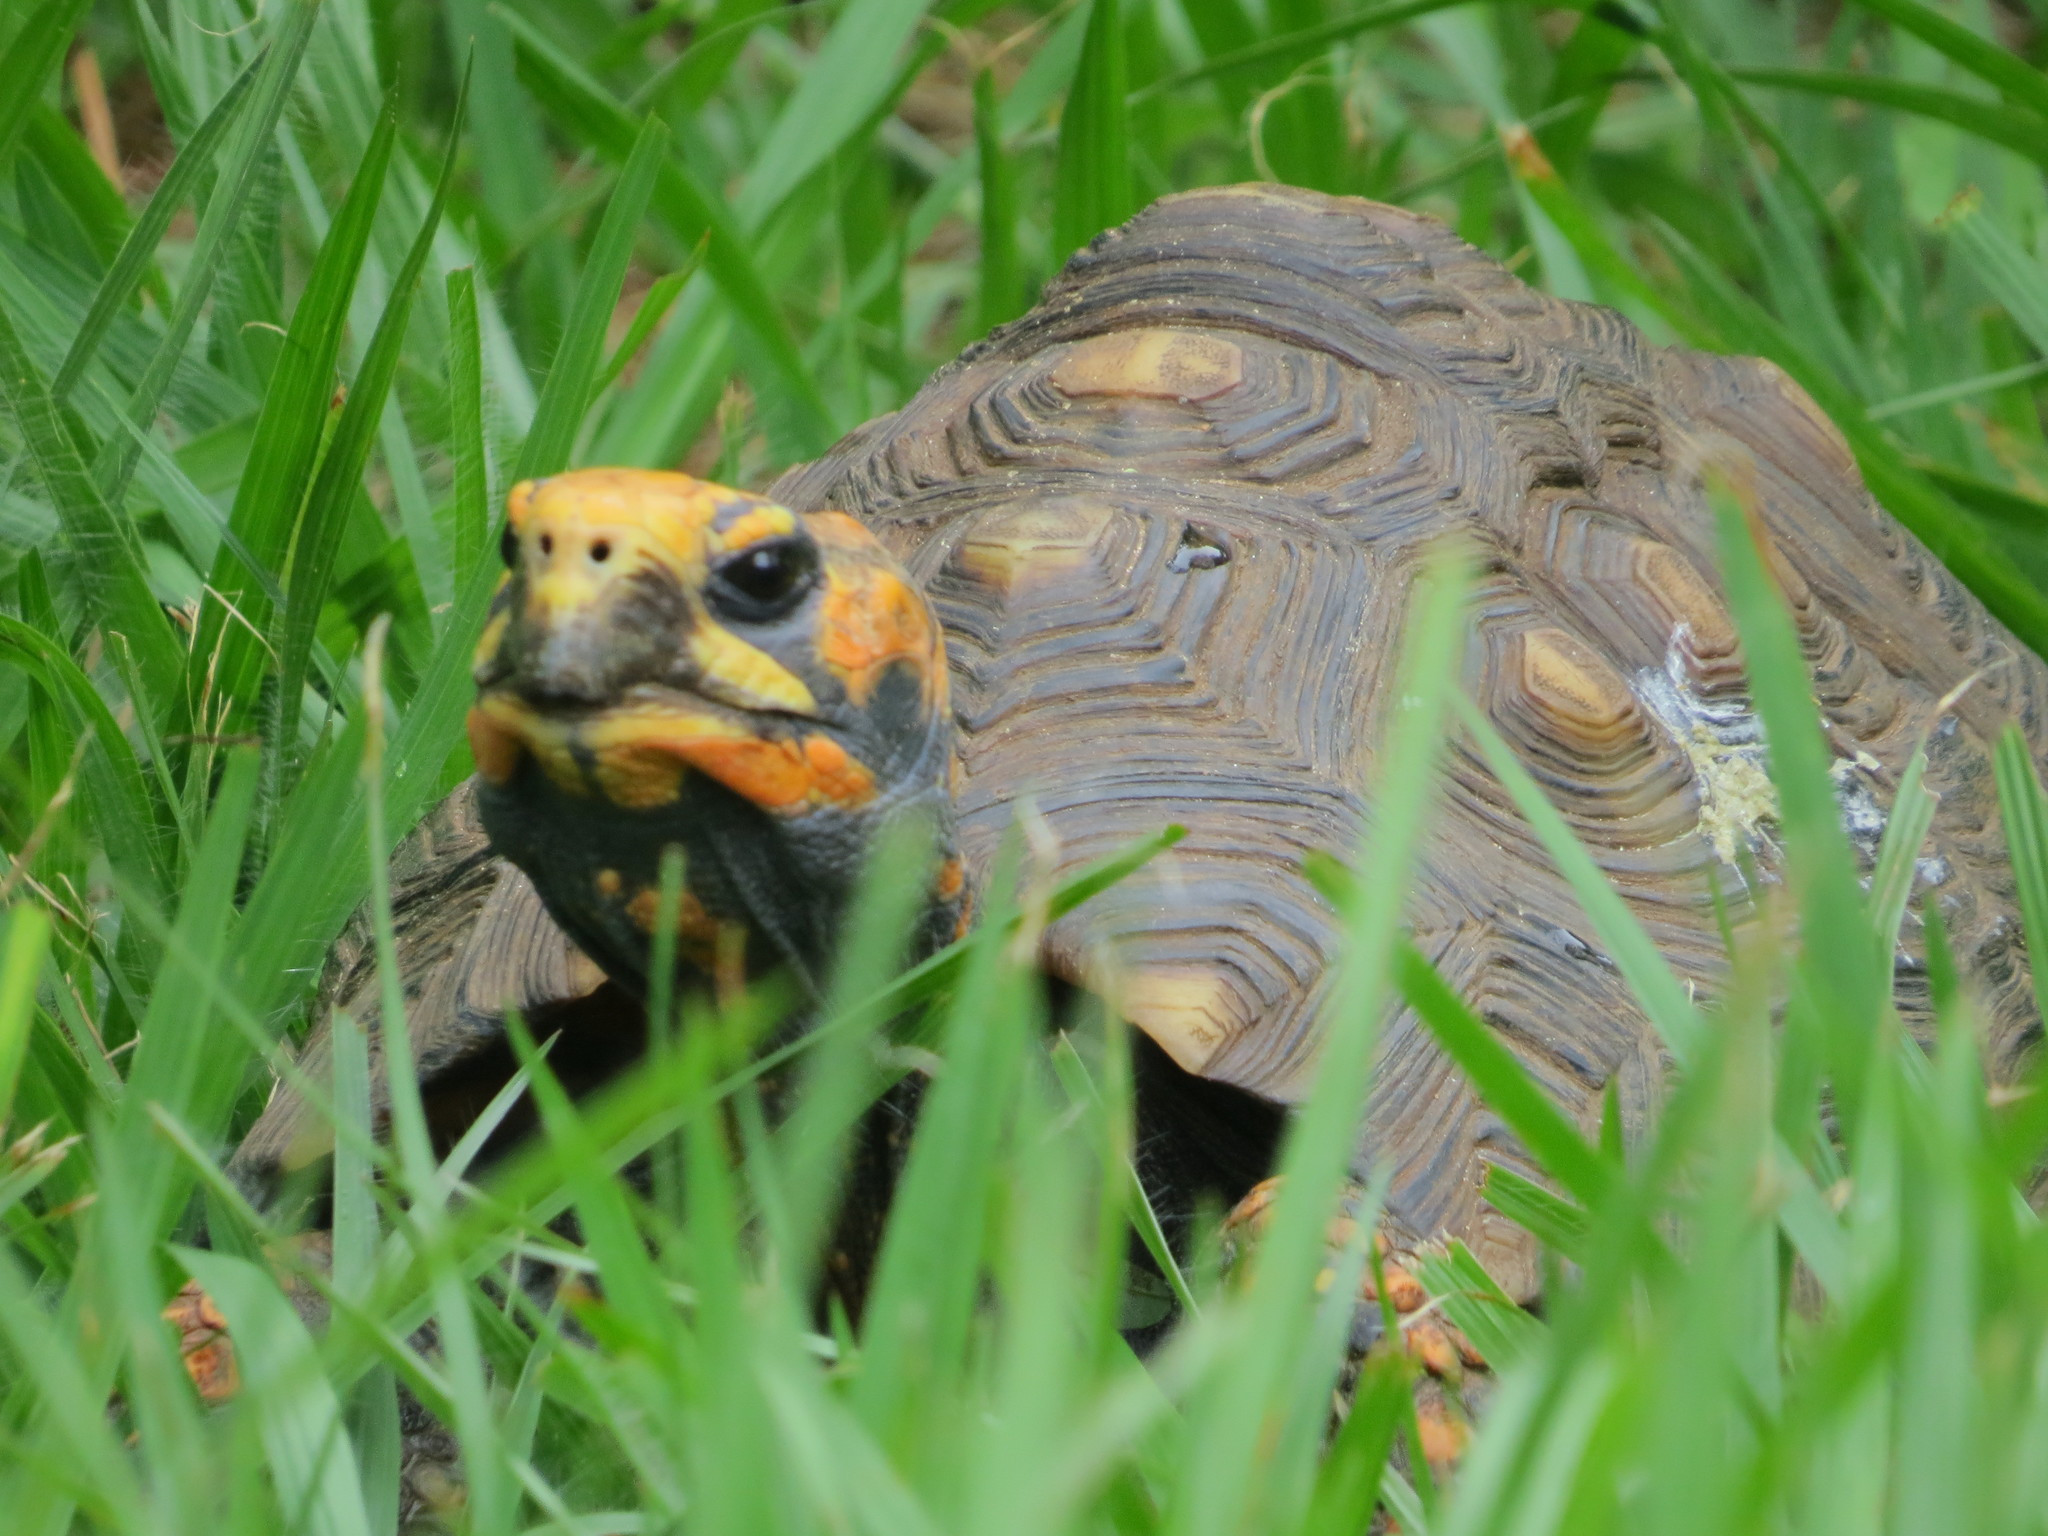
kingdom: Animalia
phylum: Chordata
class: Testudines
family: Testudinidae
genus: Chelonoidis
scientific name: Chelonoidis carbonarius
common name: Red-footed tortoise
